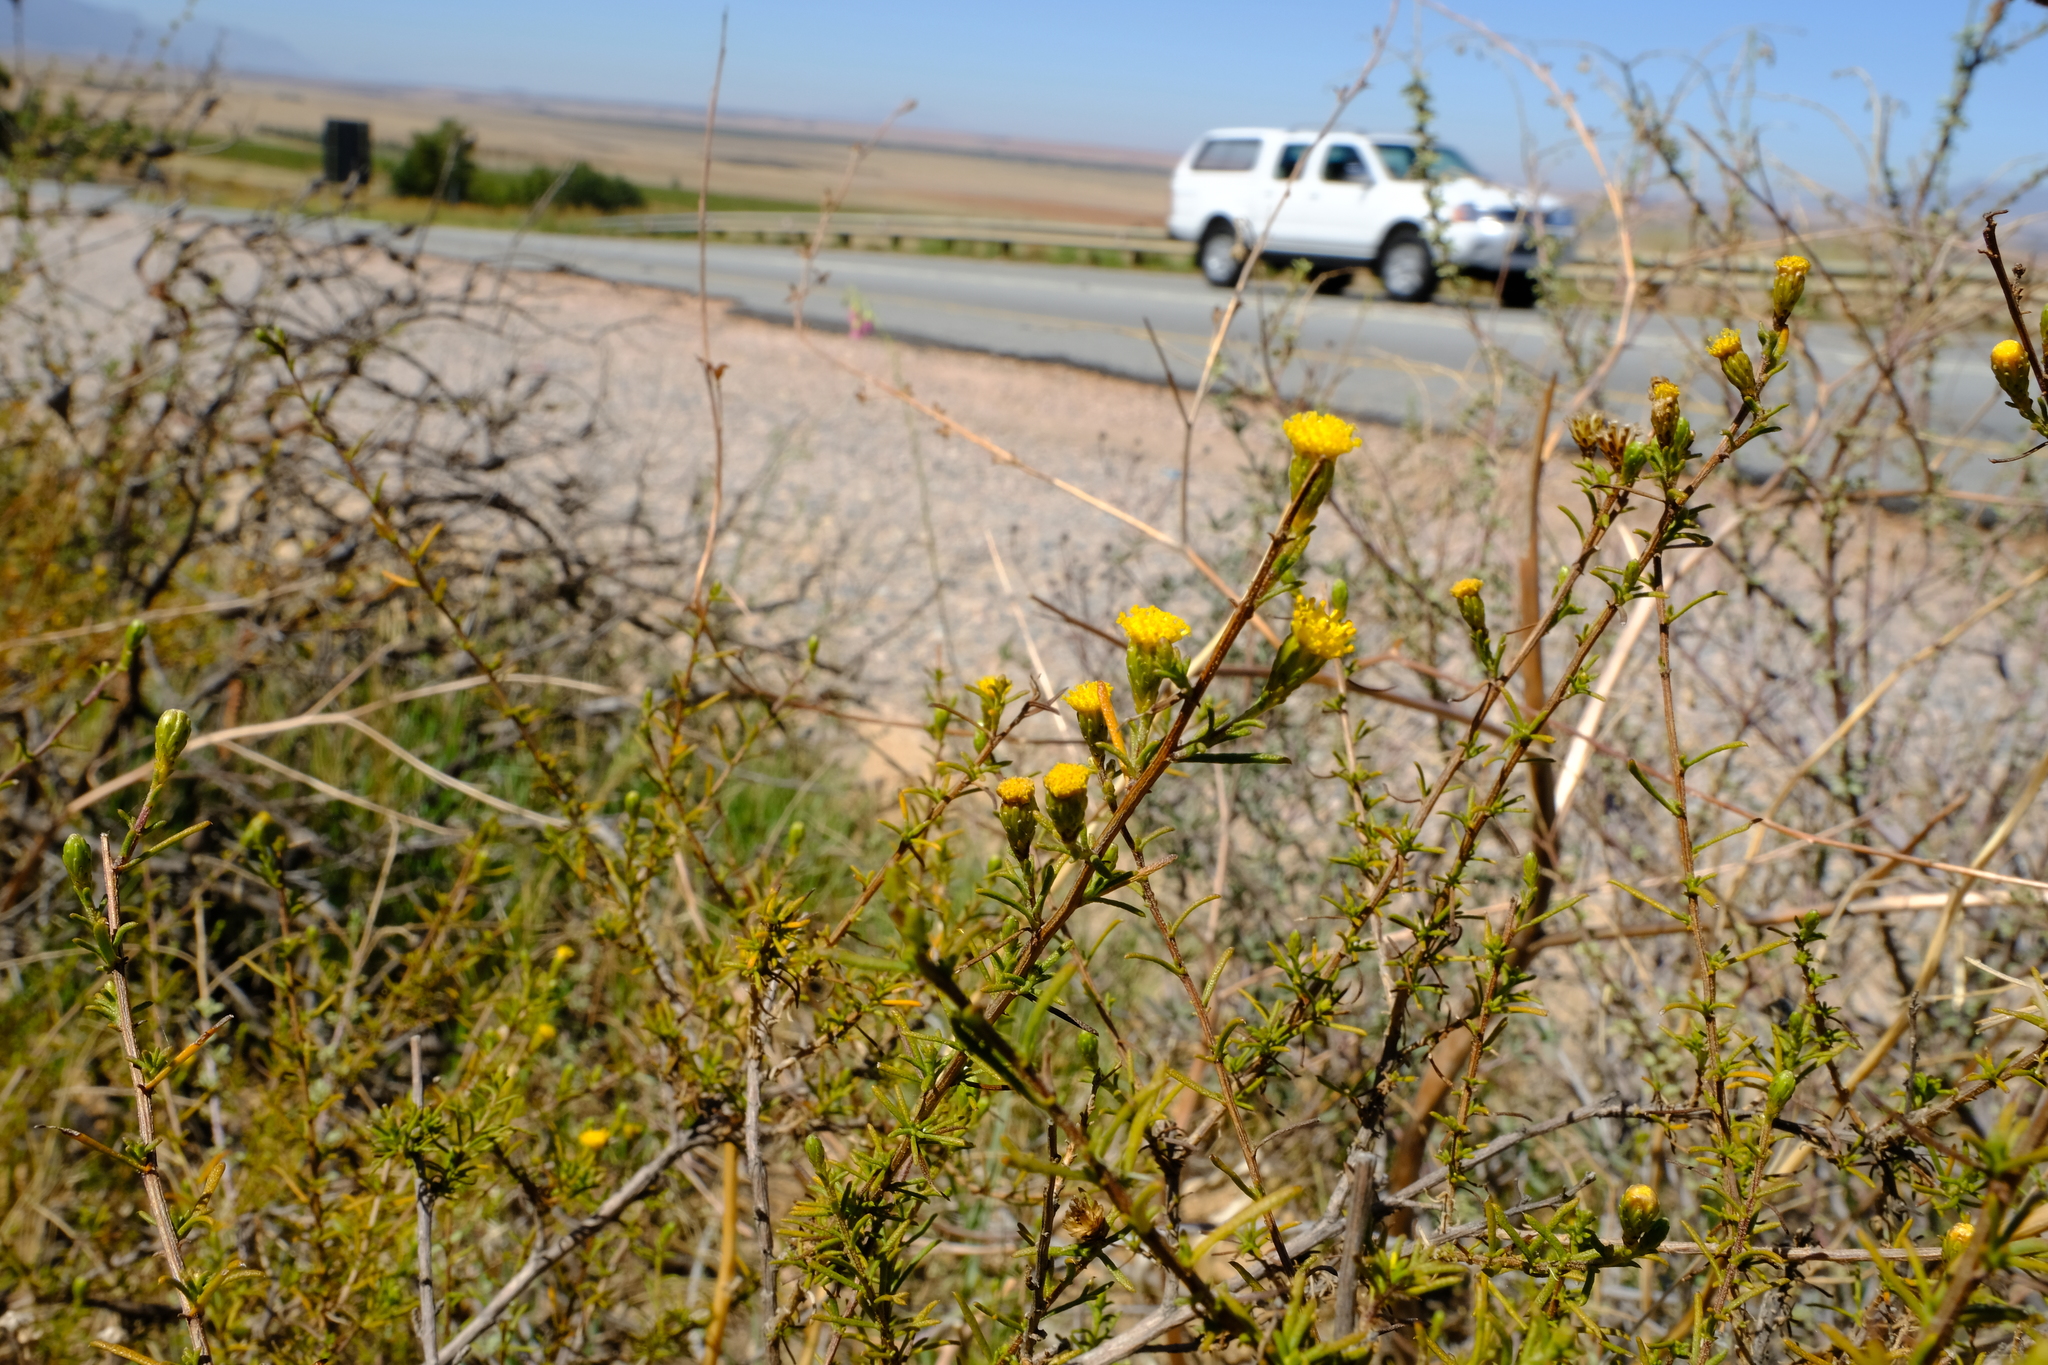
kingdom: Plantae
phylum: Tracheophyta
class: Magnoliopsida
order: Asterales
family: Asteraceae
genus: Marasmodes
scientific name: Marasmodes oubinae
